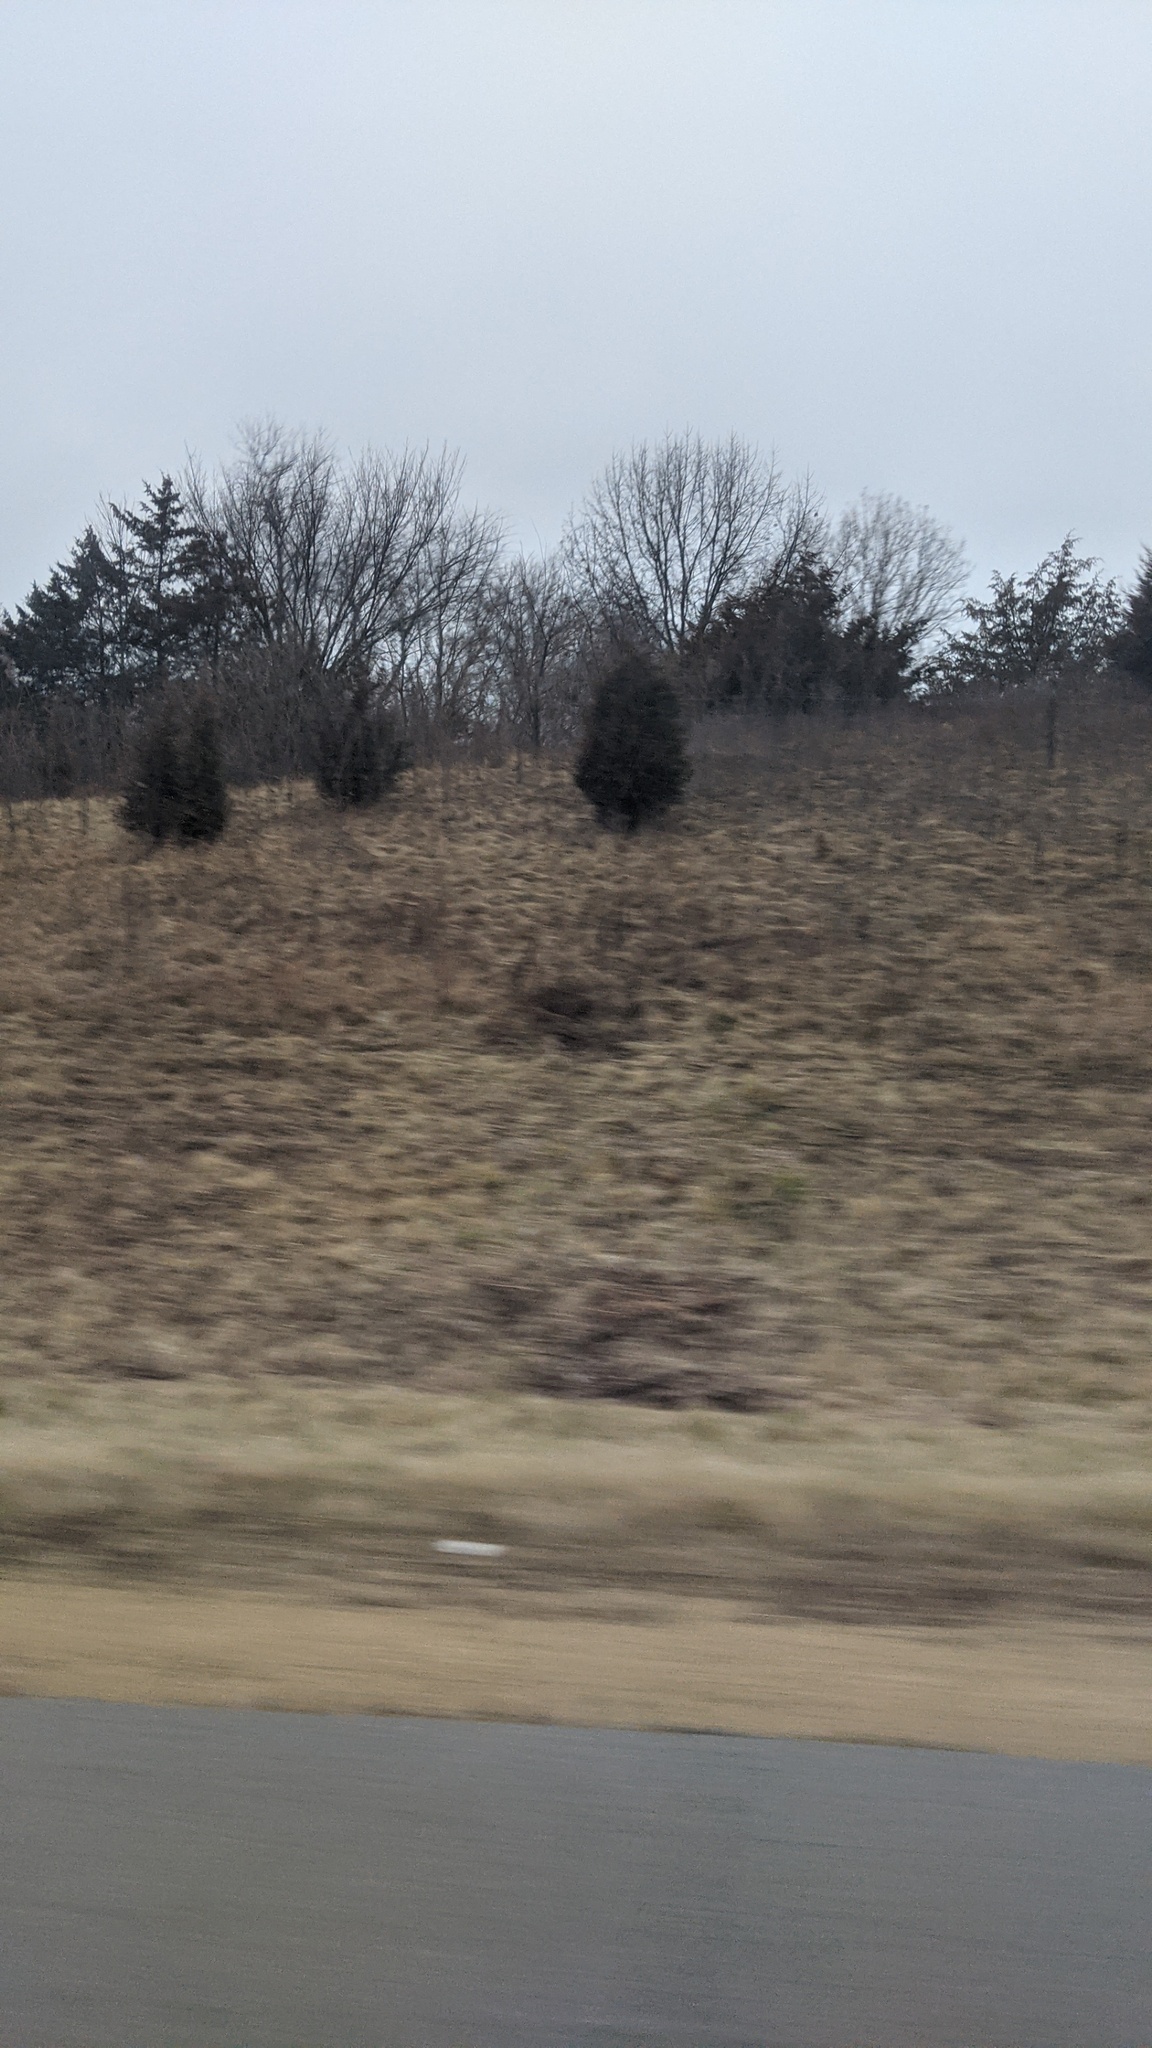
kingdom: Plantae
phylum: Tracheophyta
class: Pinopsida
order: Pinales
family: Cupressaceae
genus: Juniperus
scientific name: Juniperus virginiana
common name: Red juniper
